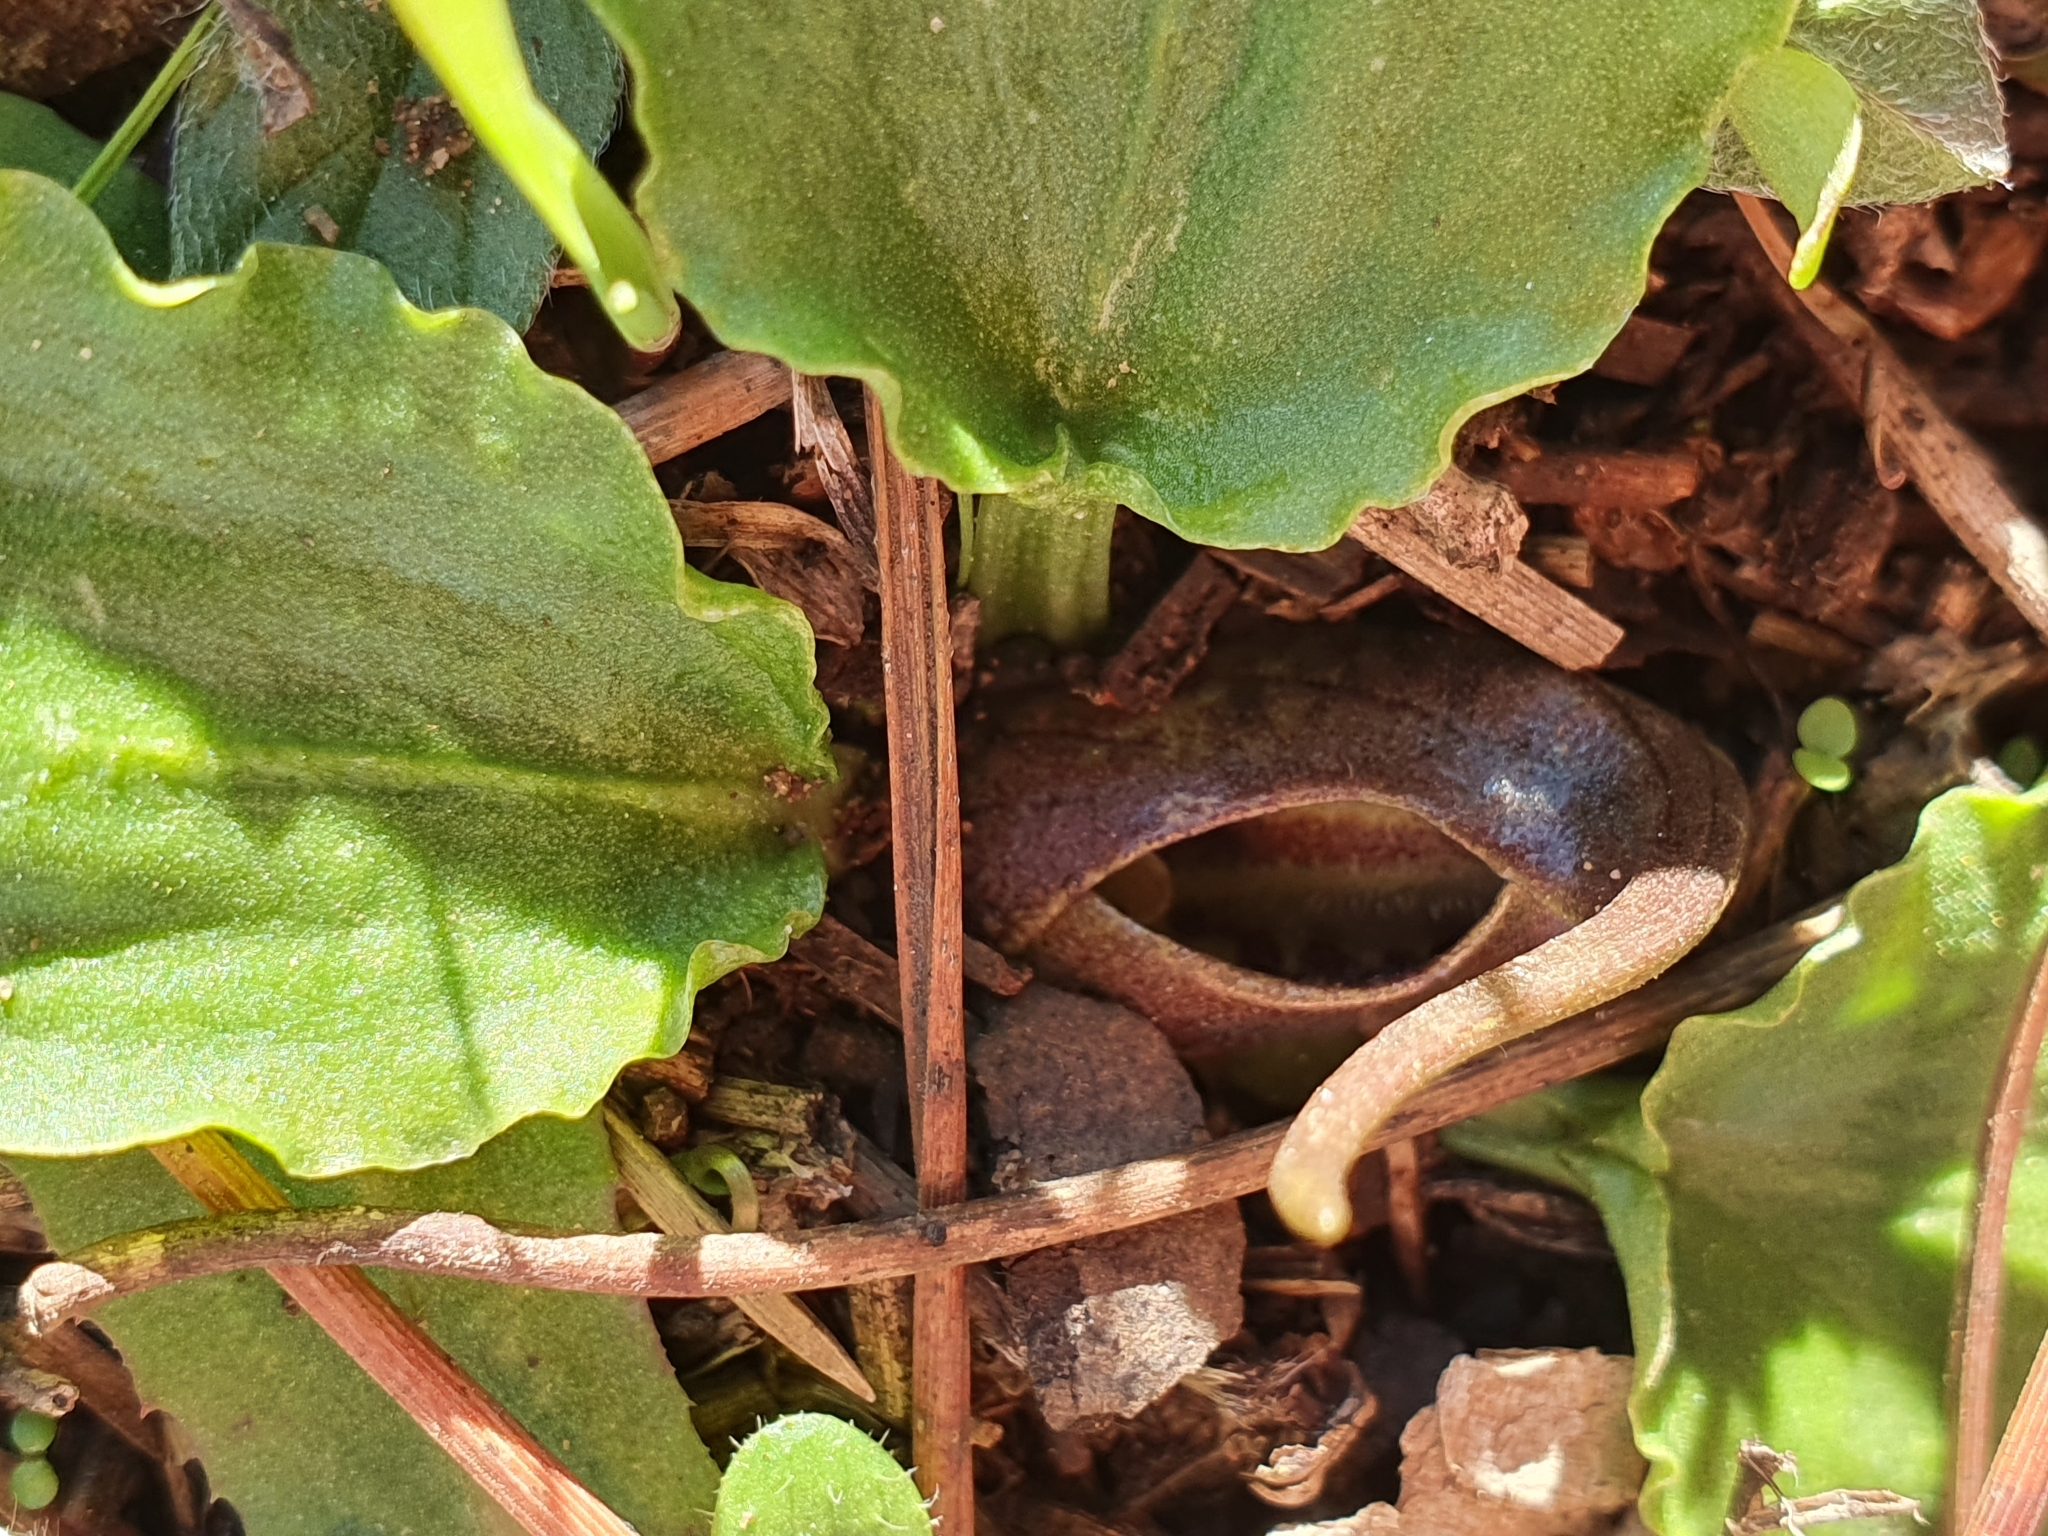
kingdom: Plantae
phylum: Tracheophyta
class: Liliopsida
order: Alismatales
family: Araceae
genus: Ambrosina
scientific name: Ambrosina bassii
